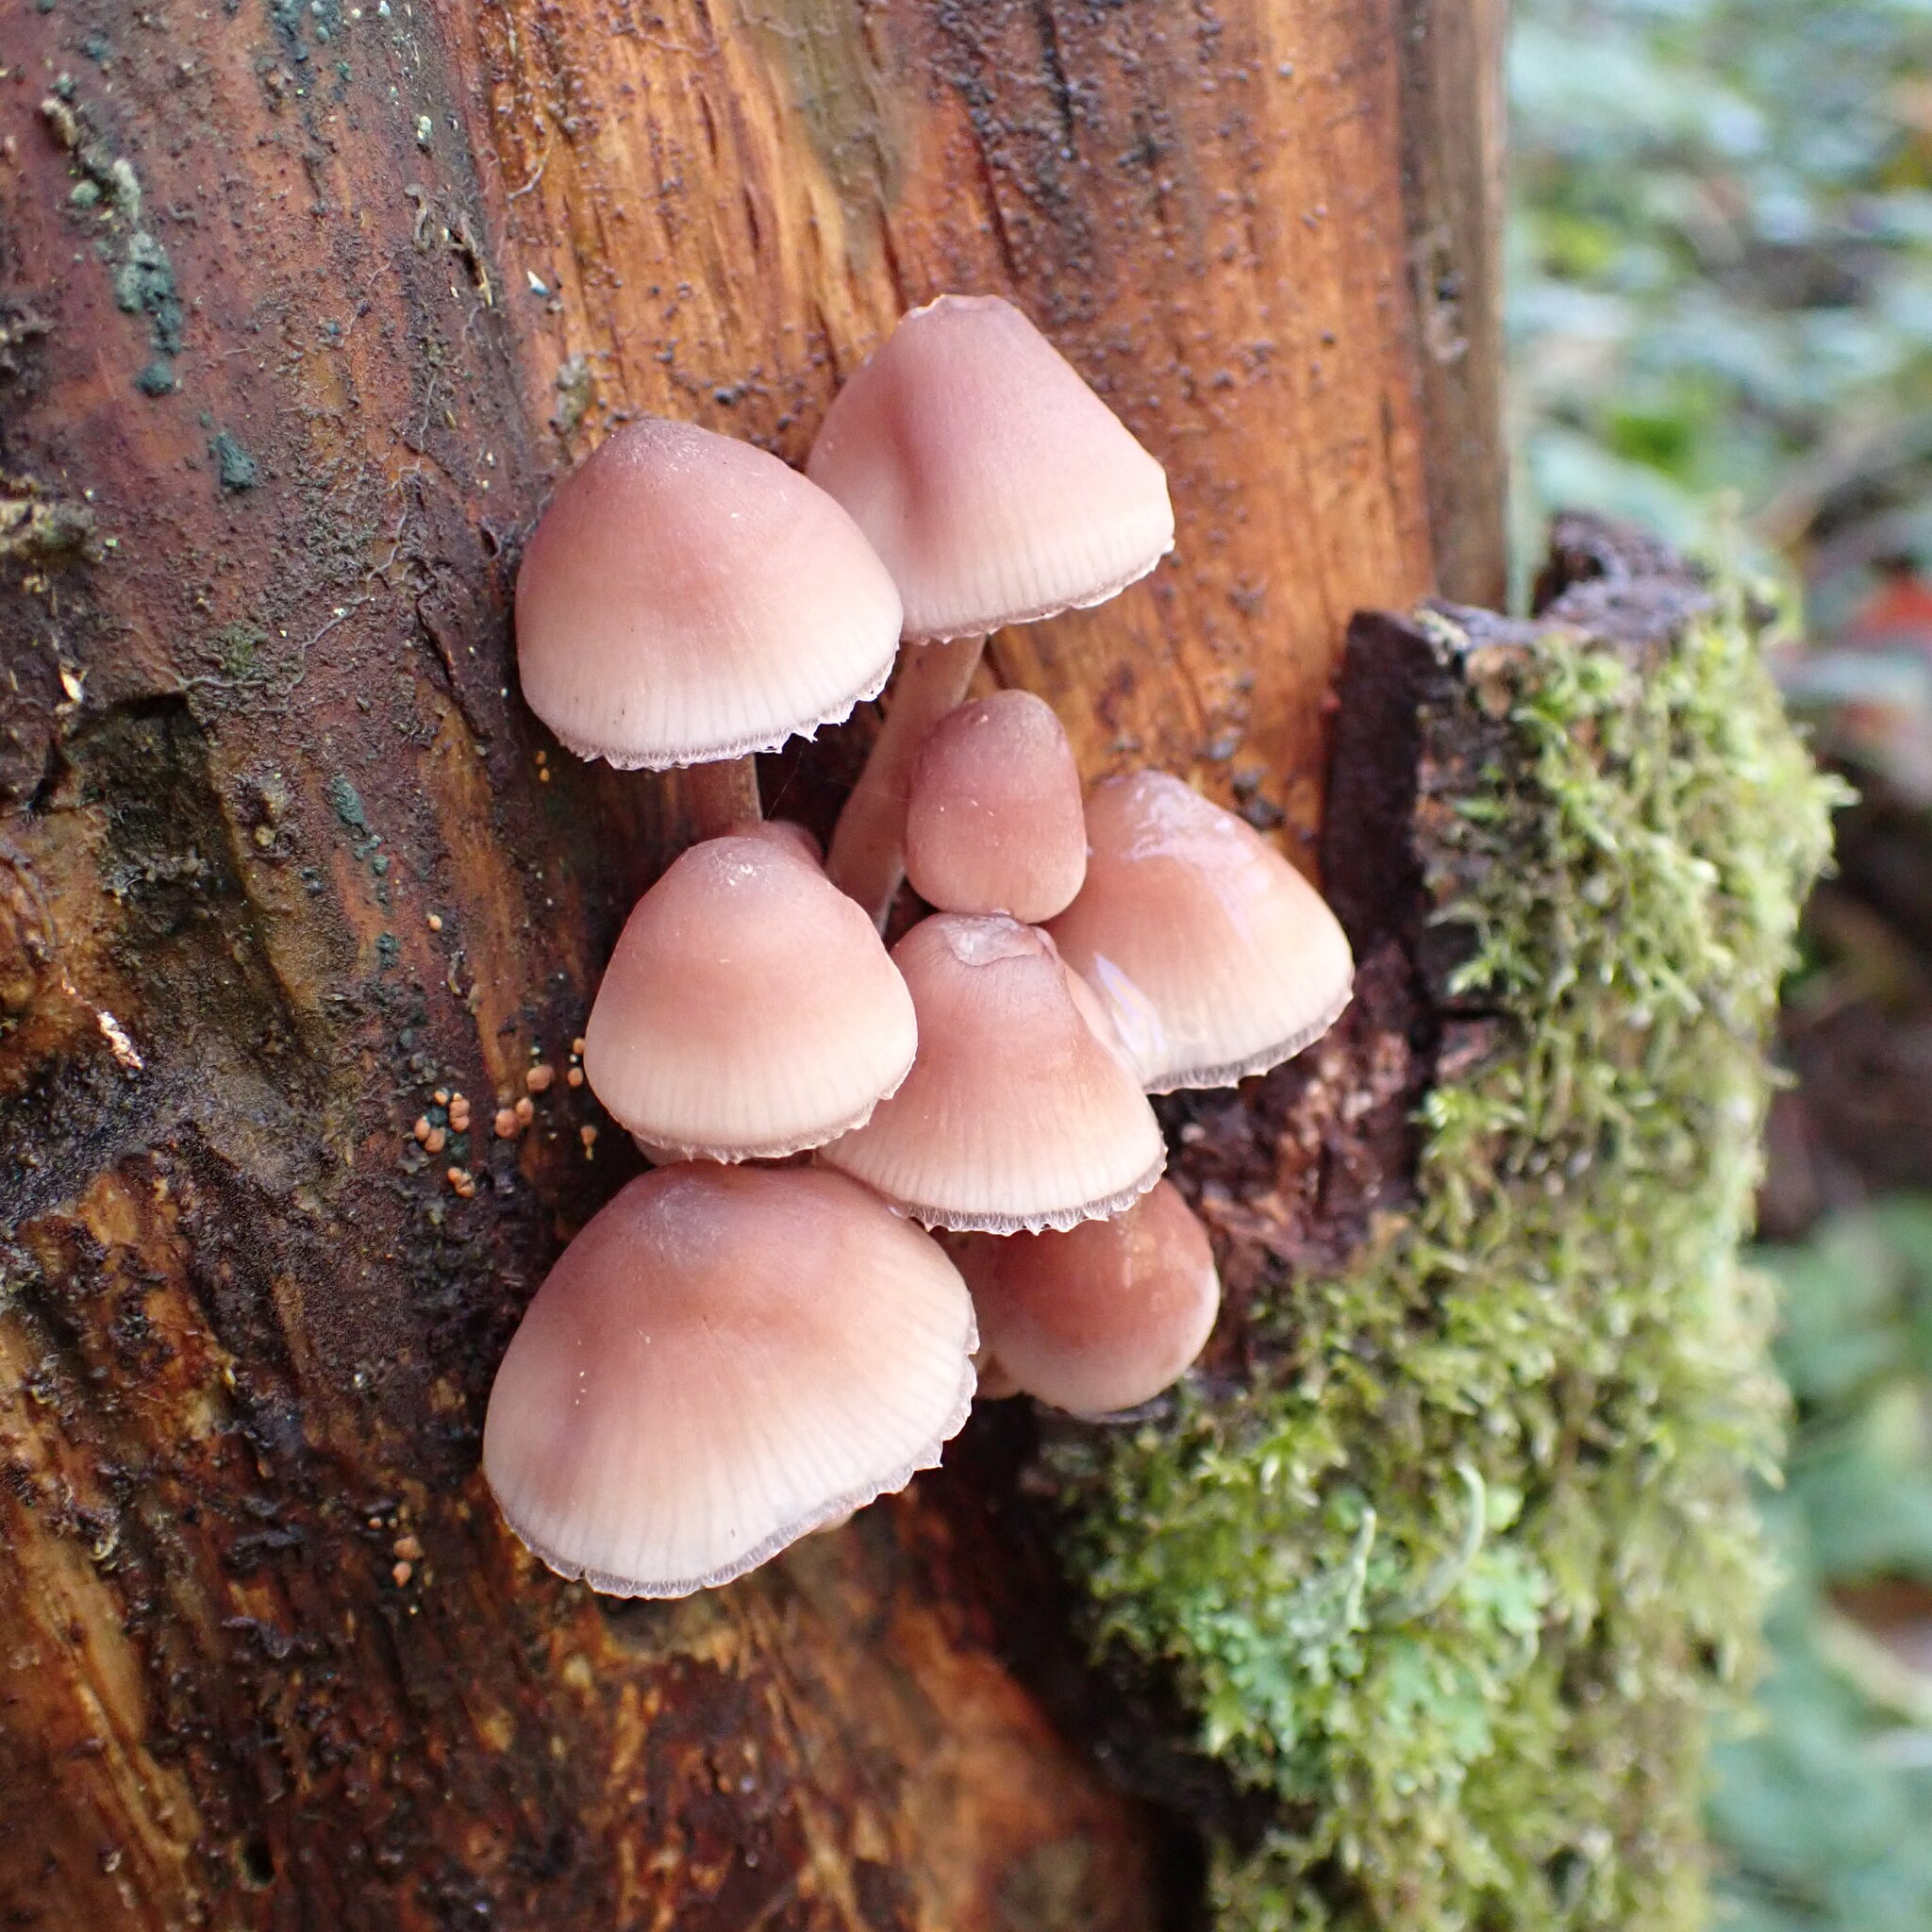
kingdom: Fungi
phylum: Basidiomycota
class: Agaricomycetes
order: Agaricales
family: Mycenaceae
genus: Mycena
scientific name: Mycena haematopus
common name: Burgundydrop bonnet
